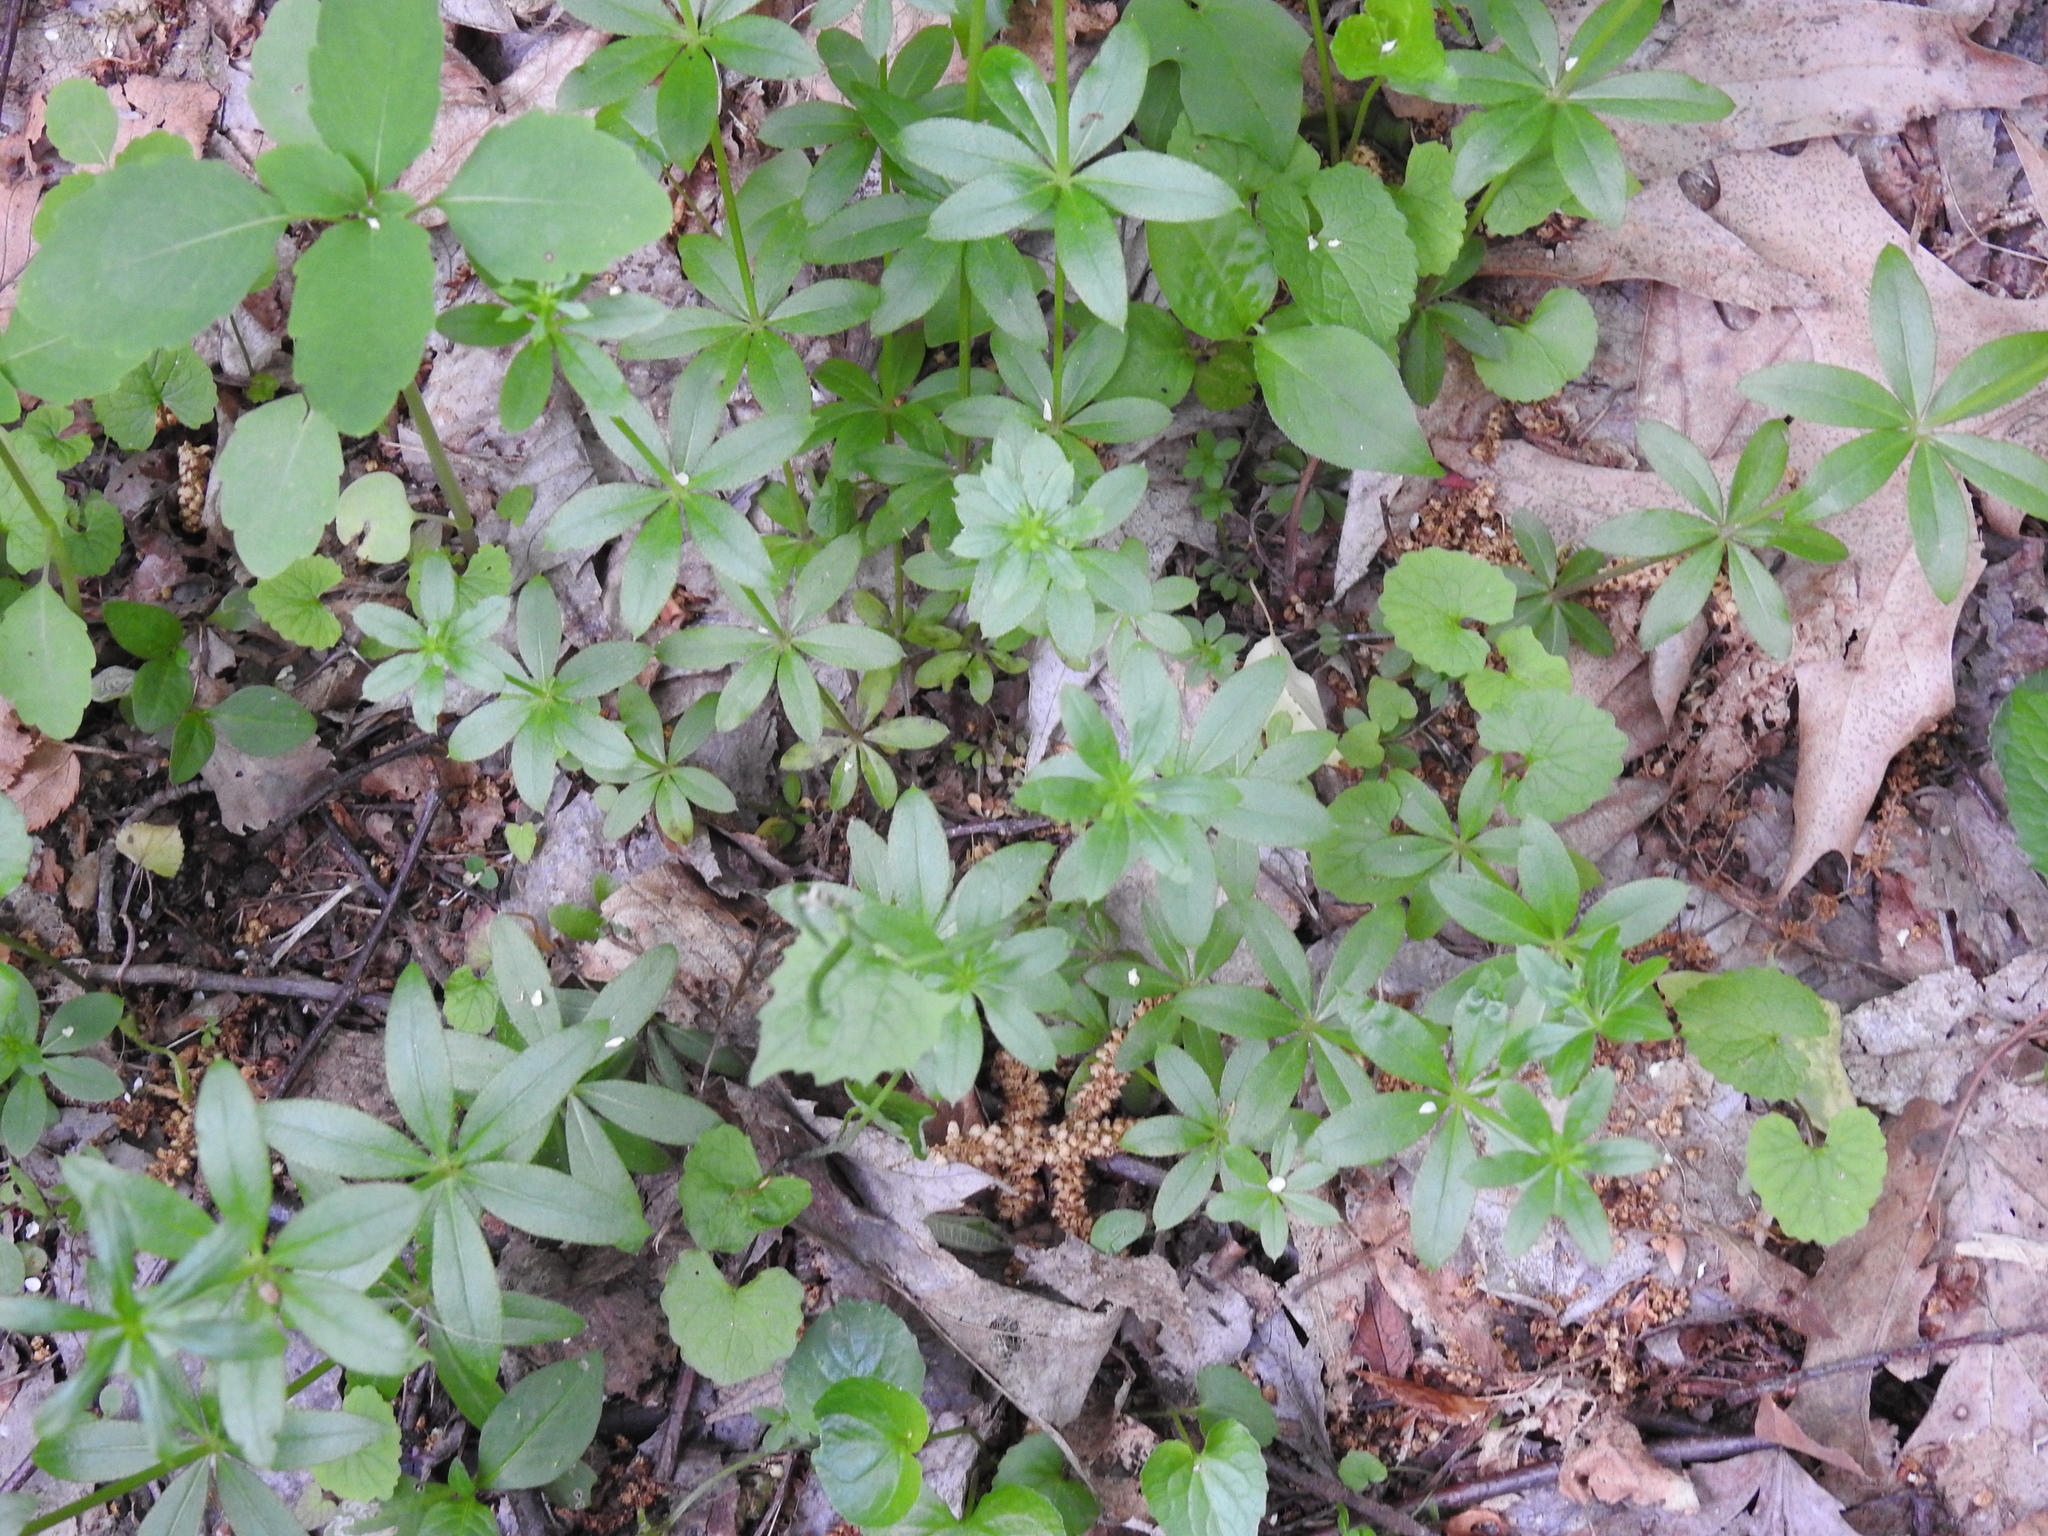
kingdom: Plantae
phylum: Tracheophyta
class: Magnoliopsida
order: Gentianales
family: Rubiaceae
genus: Galium
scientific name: Galium triflorum
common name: Fragrant bedstraw
